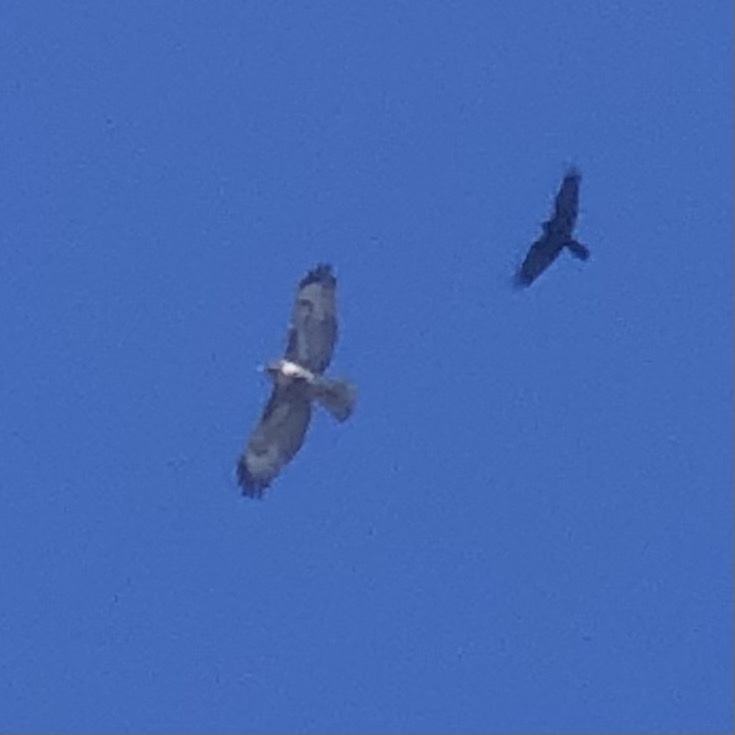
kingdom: Animalia
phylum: Chordata
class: Aves
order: Accipitriformes
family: Accipitridae
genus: Buteo
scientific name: Buteo jamaicensis
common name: Red-tailed hawk
